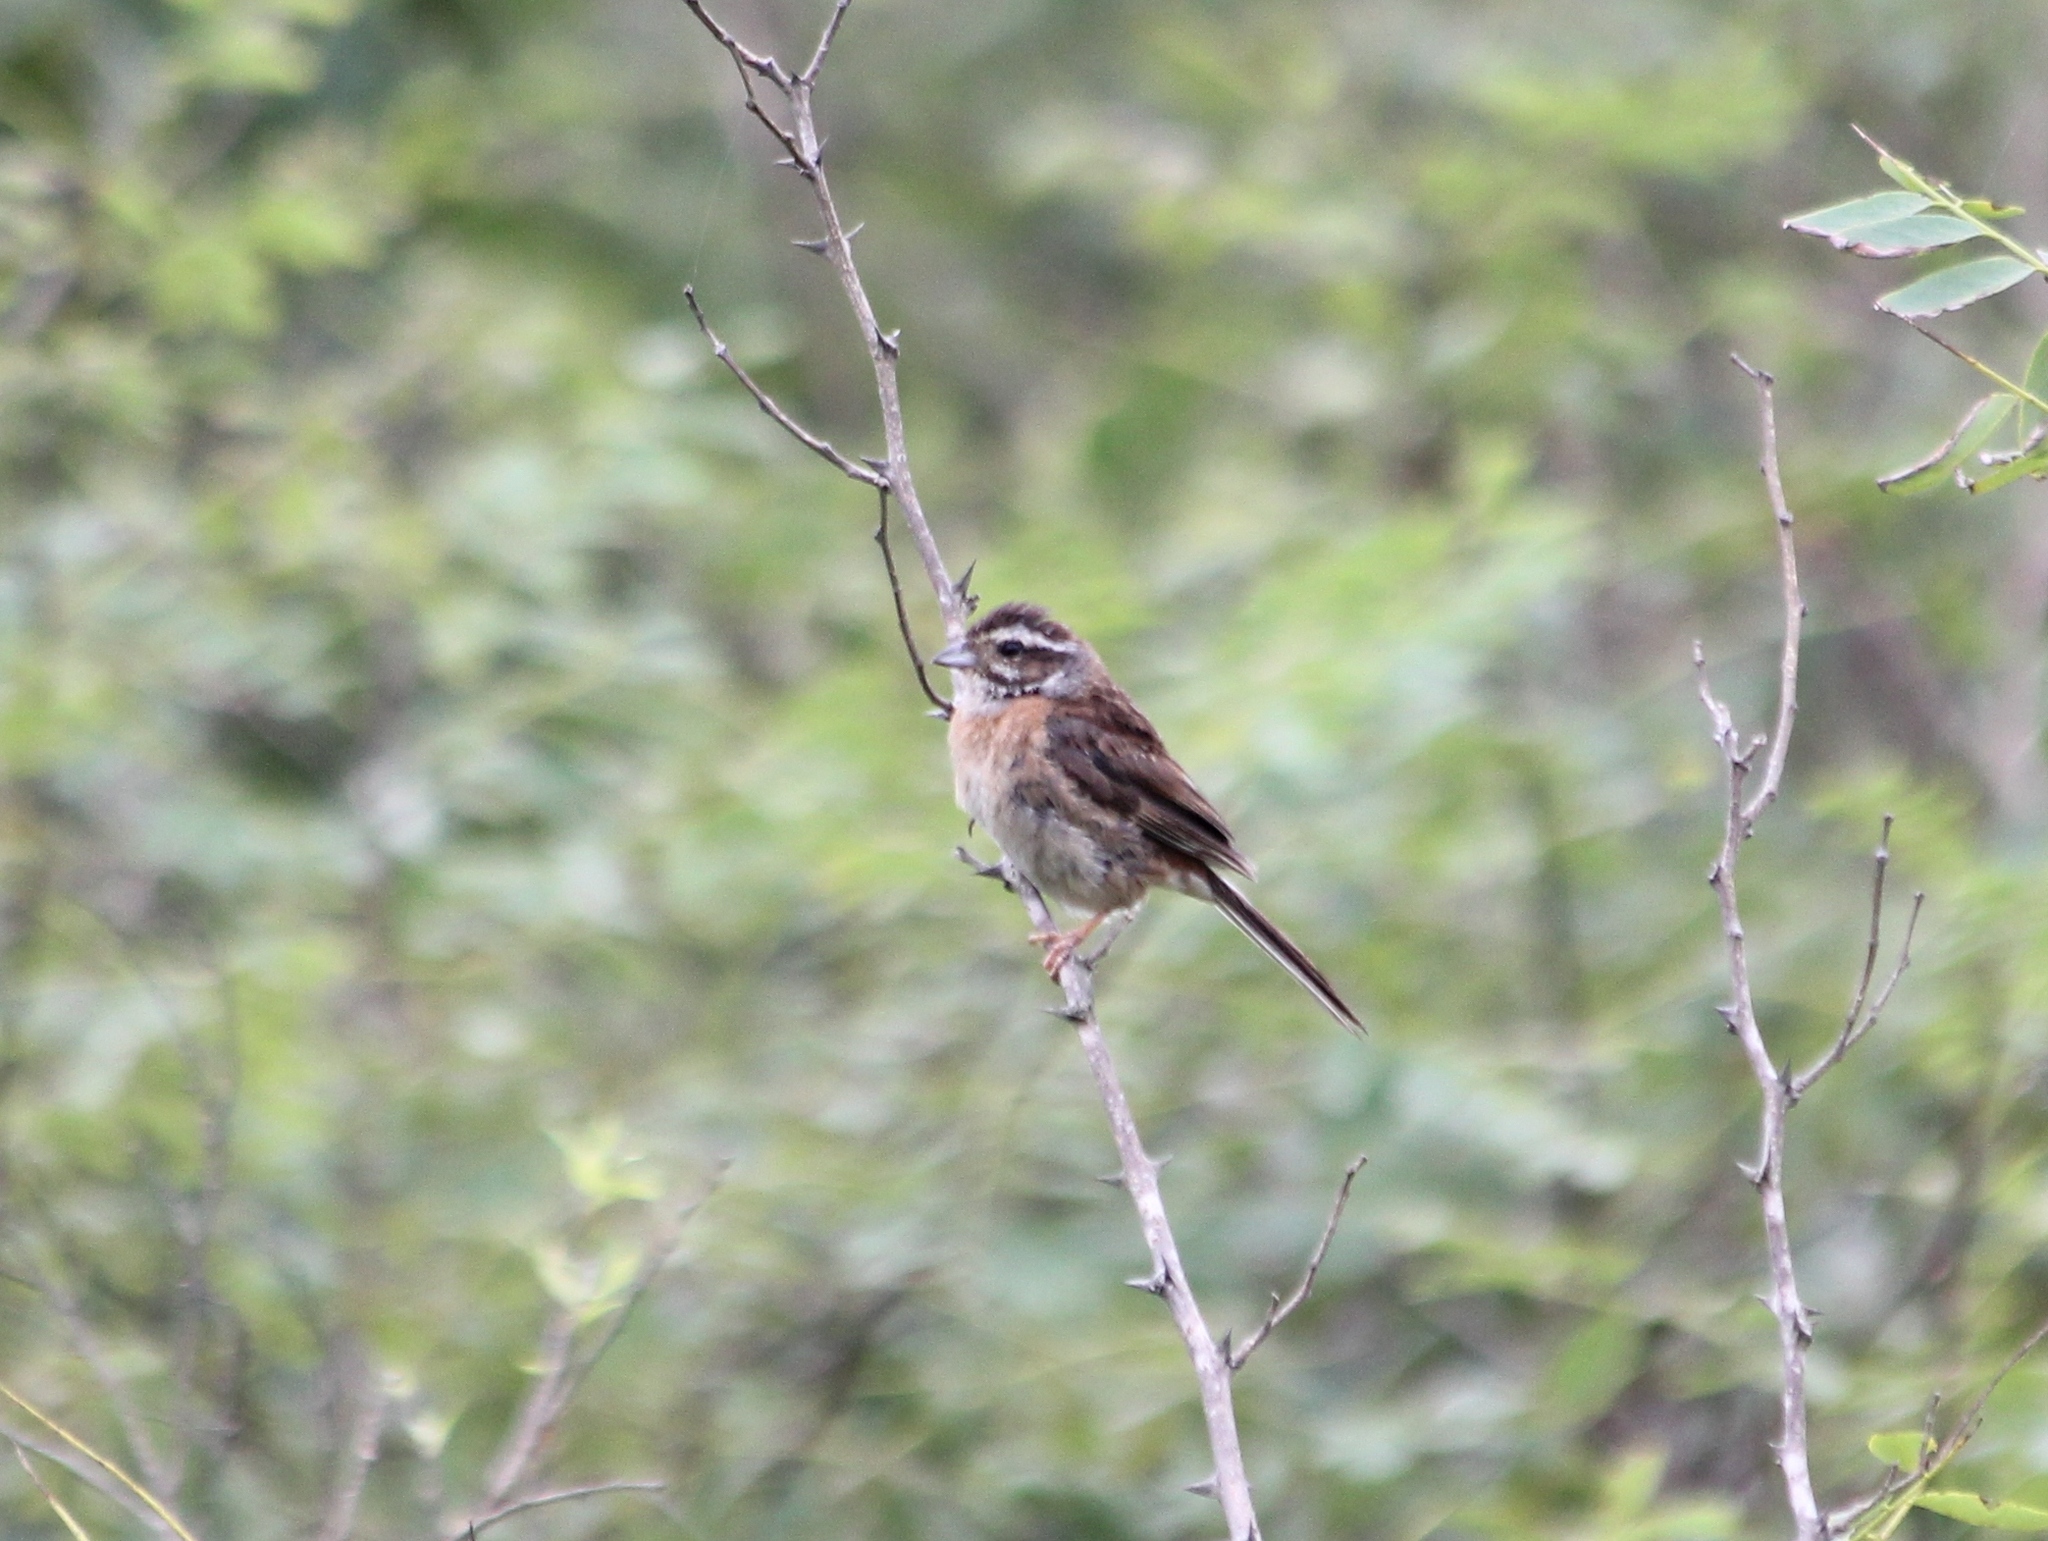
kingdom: Animalia
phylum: Chordata
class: Aves
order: Passeriformes
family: Emberizidae
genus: Emberiza
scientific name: Emberiza cioides
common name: Meadow bunting
